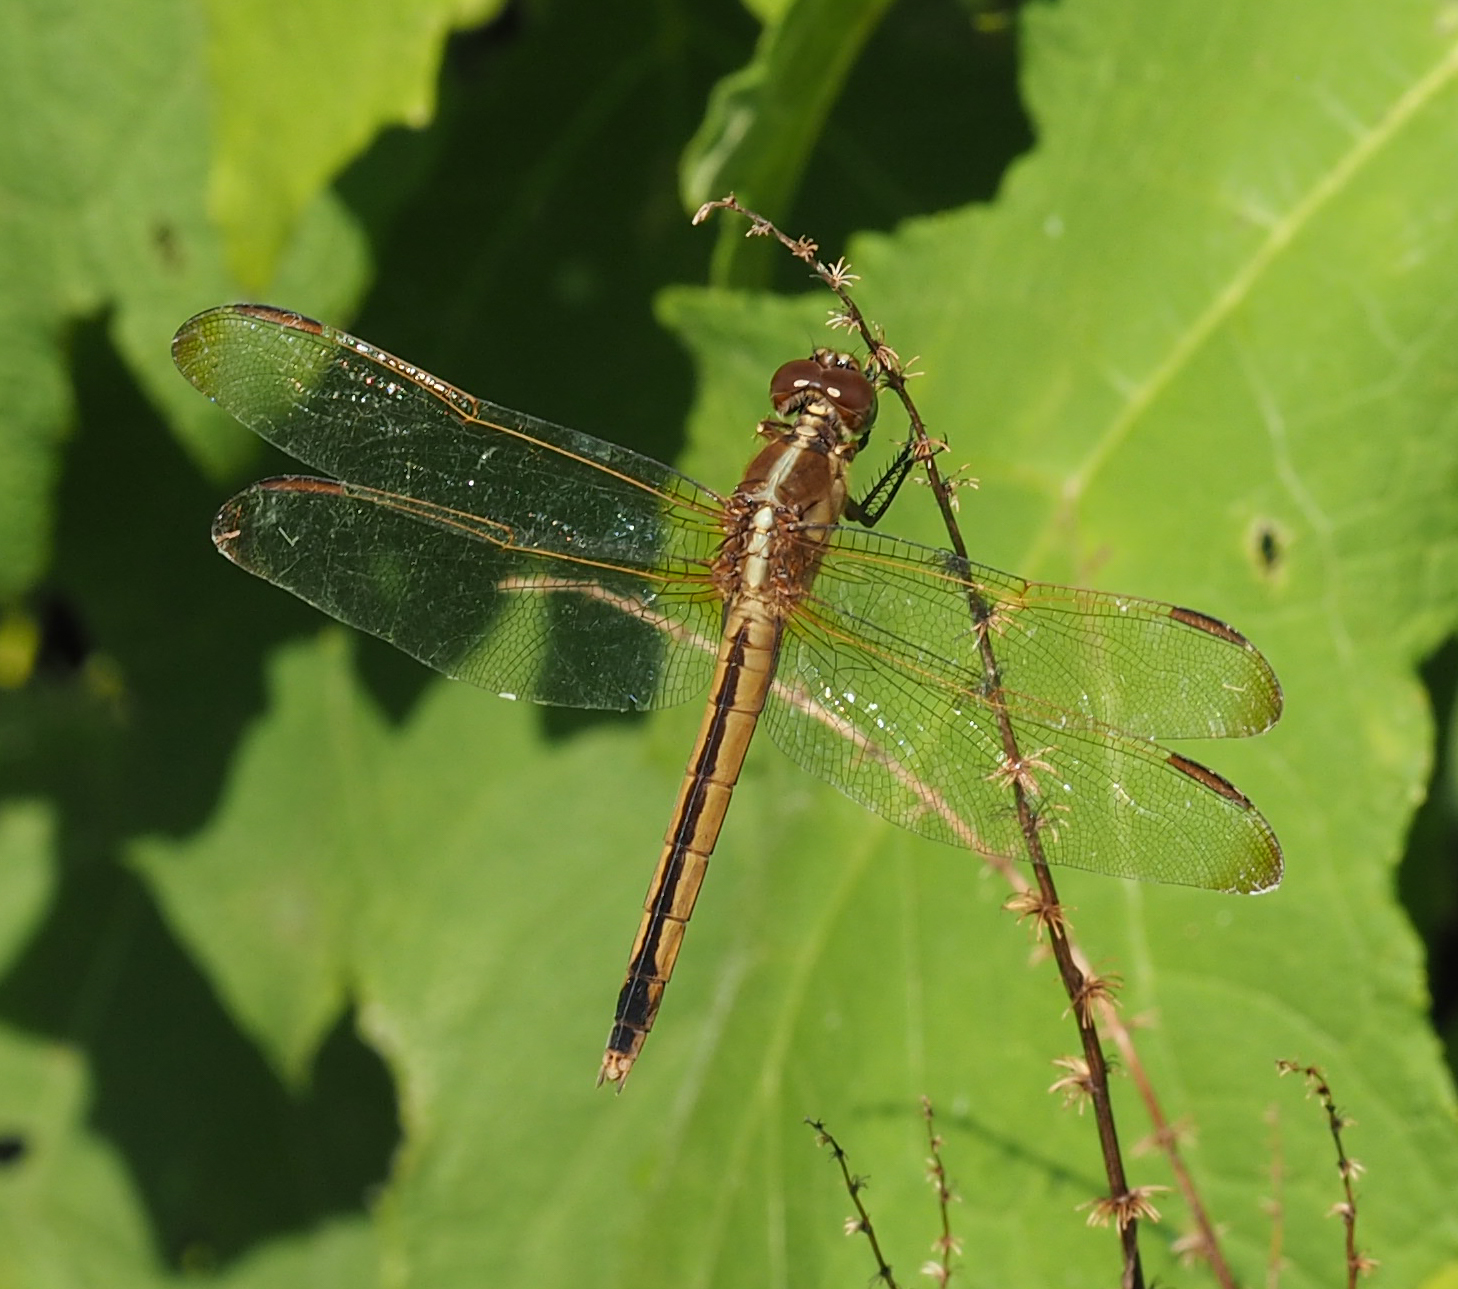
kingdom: Animalia
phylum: Arthropoda
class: Insecta
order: Odonata
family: Libellulidae
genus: Libellula
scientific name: Libellula needhami
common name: Needham's skimmer
